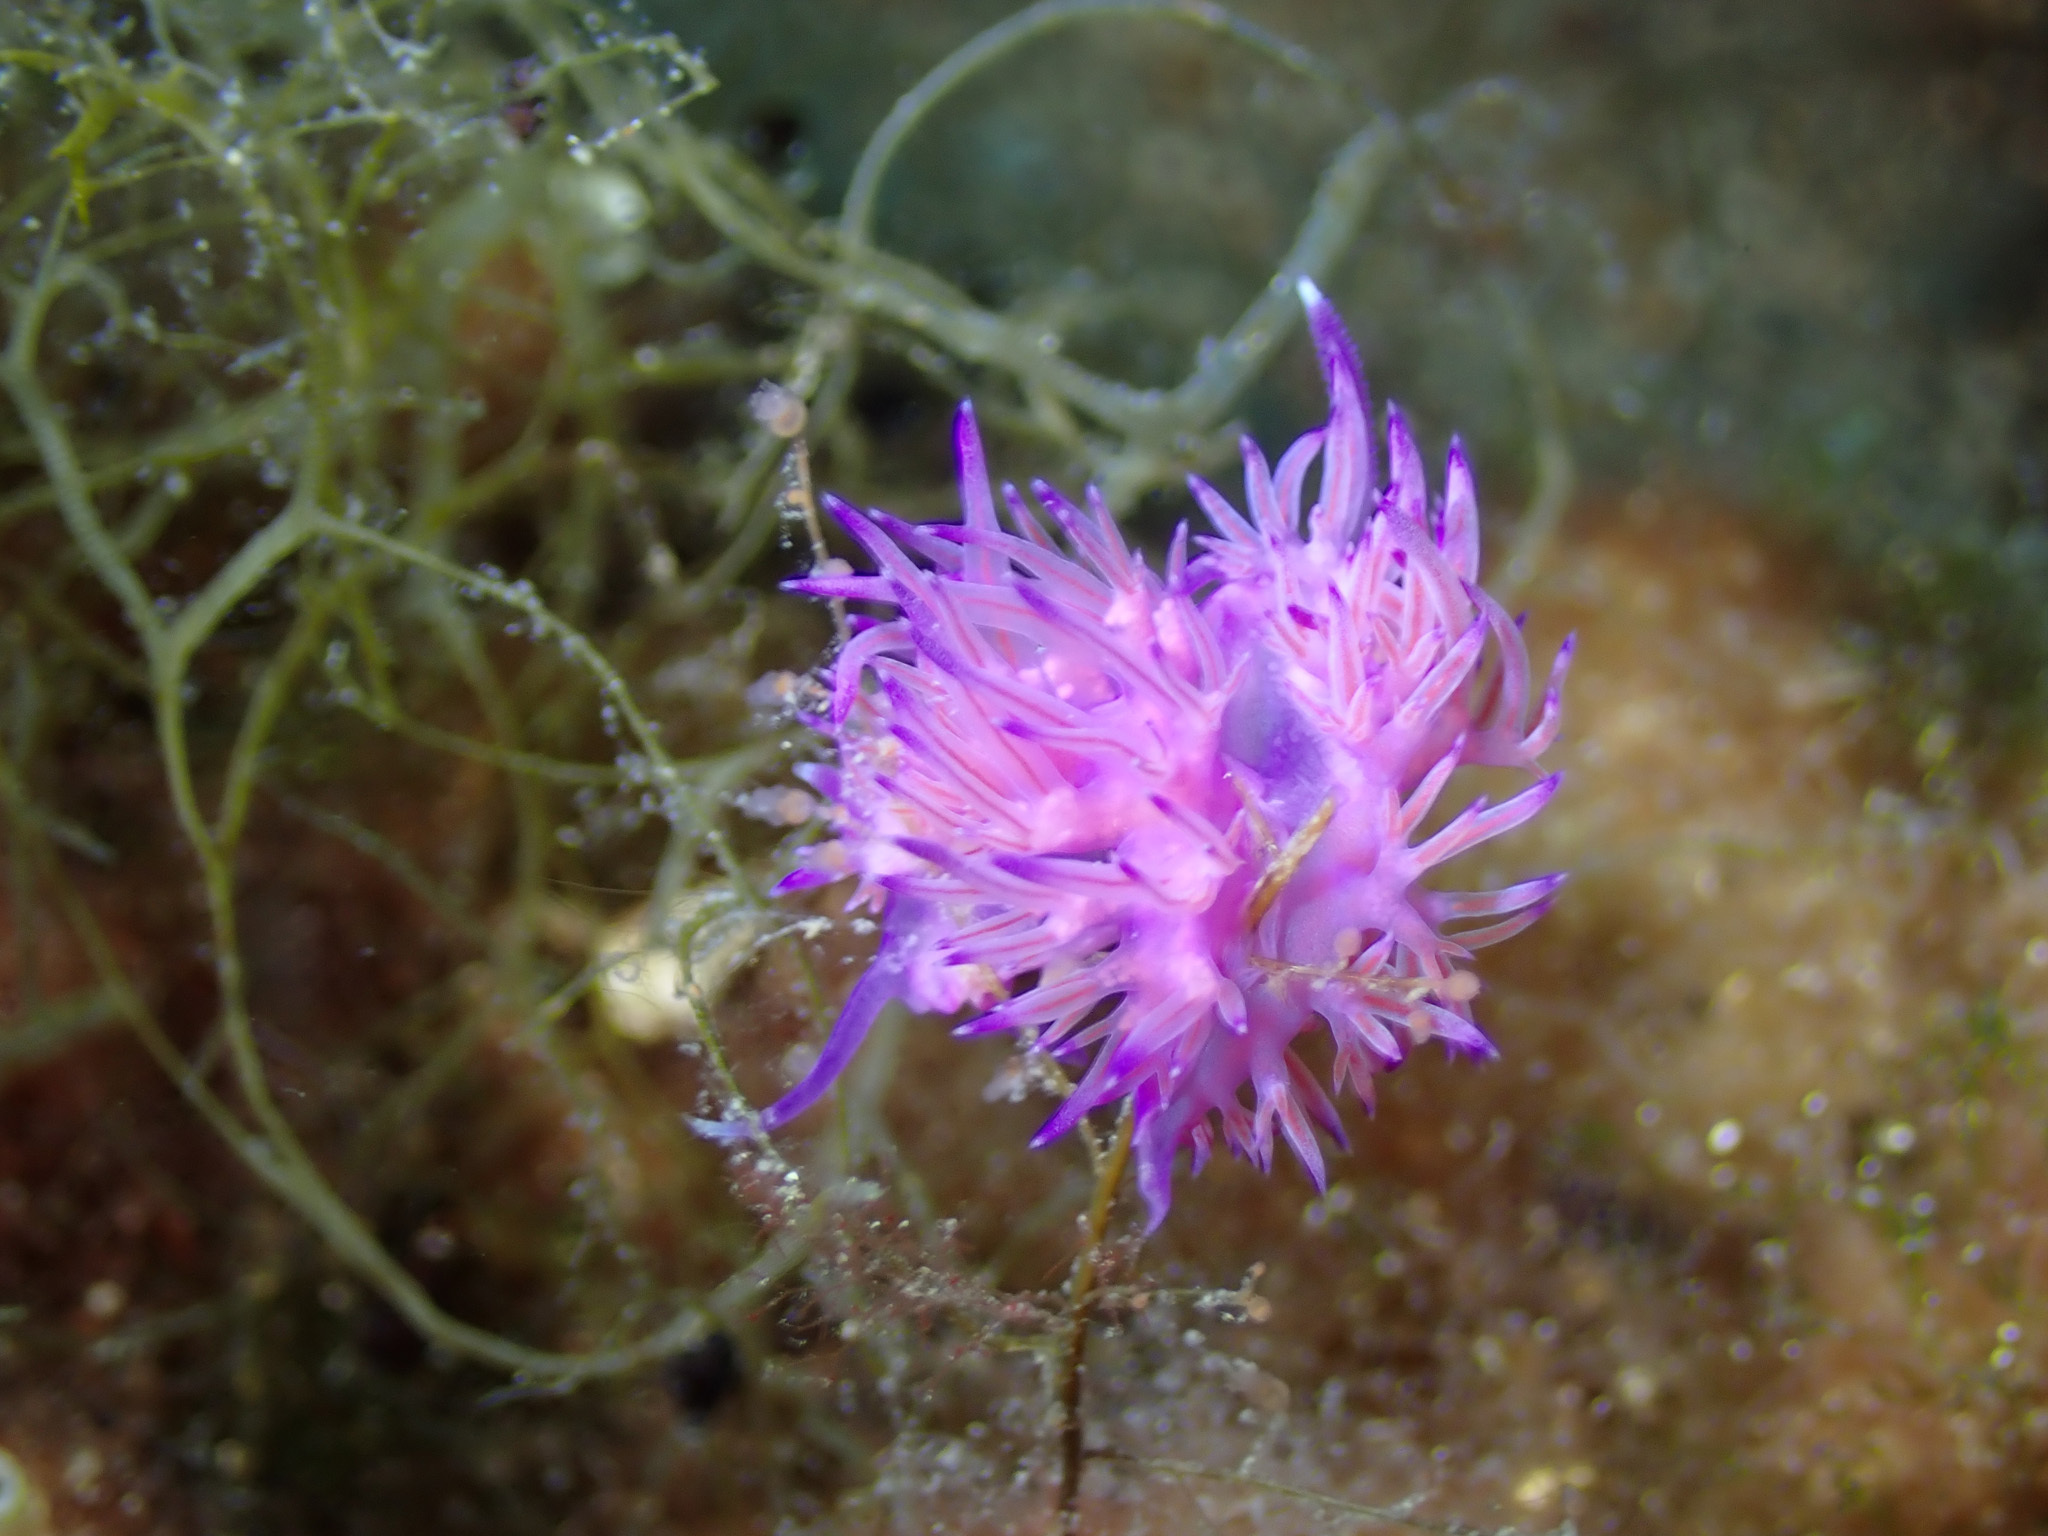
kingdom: Animalia
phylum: Mollusca
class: Gastropoda
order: Nudibranchia
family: Flabellinidae
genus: Flabellina
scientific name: Flabellina affinis
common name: Mediterranean violet aeolid
